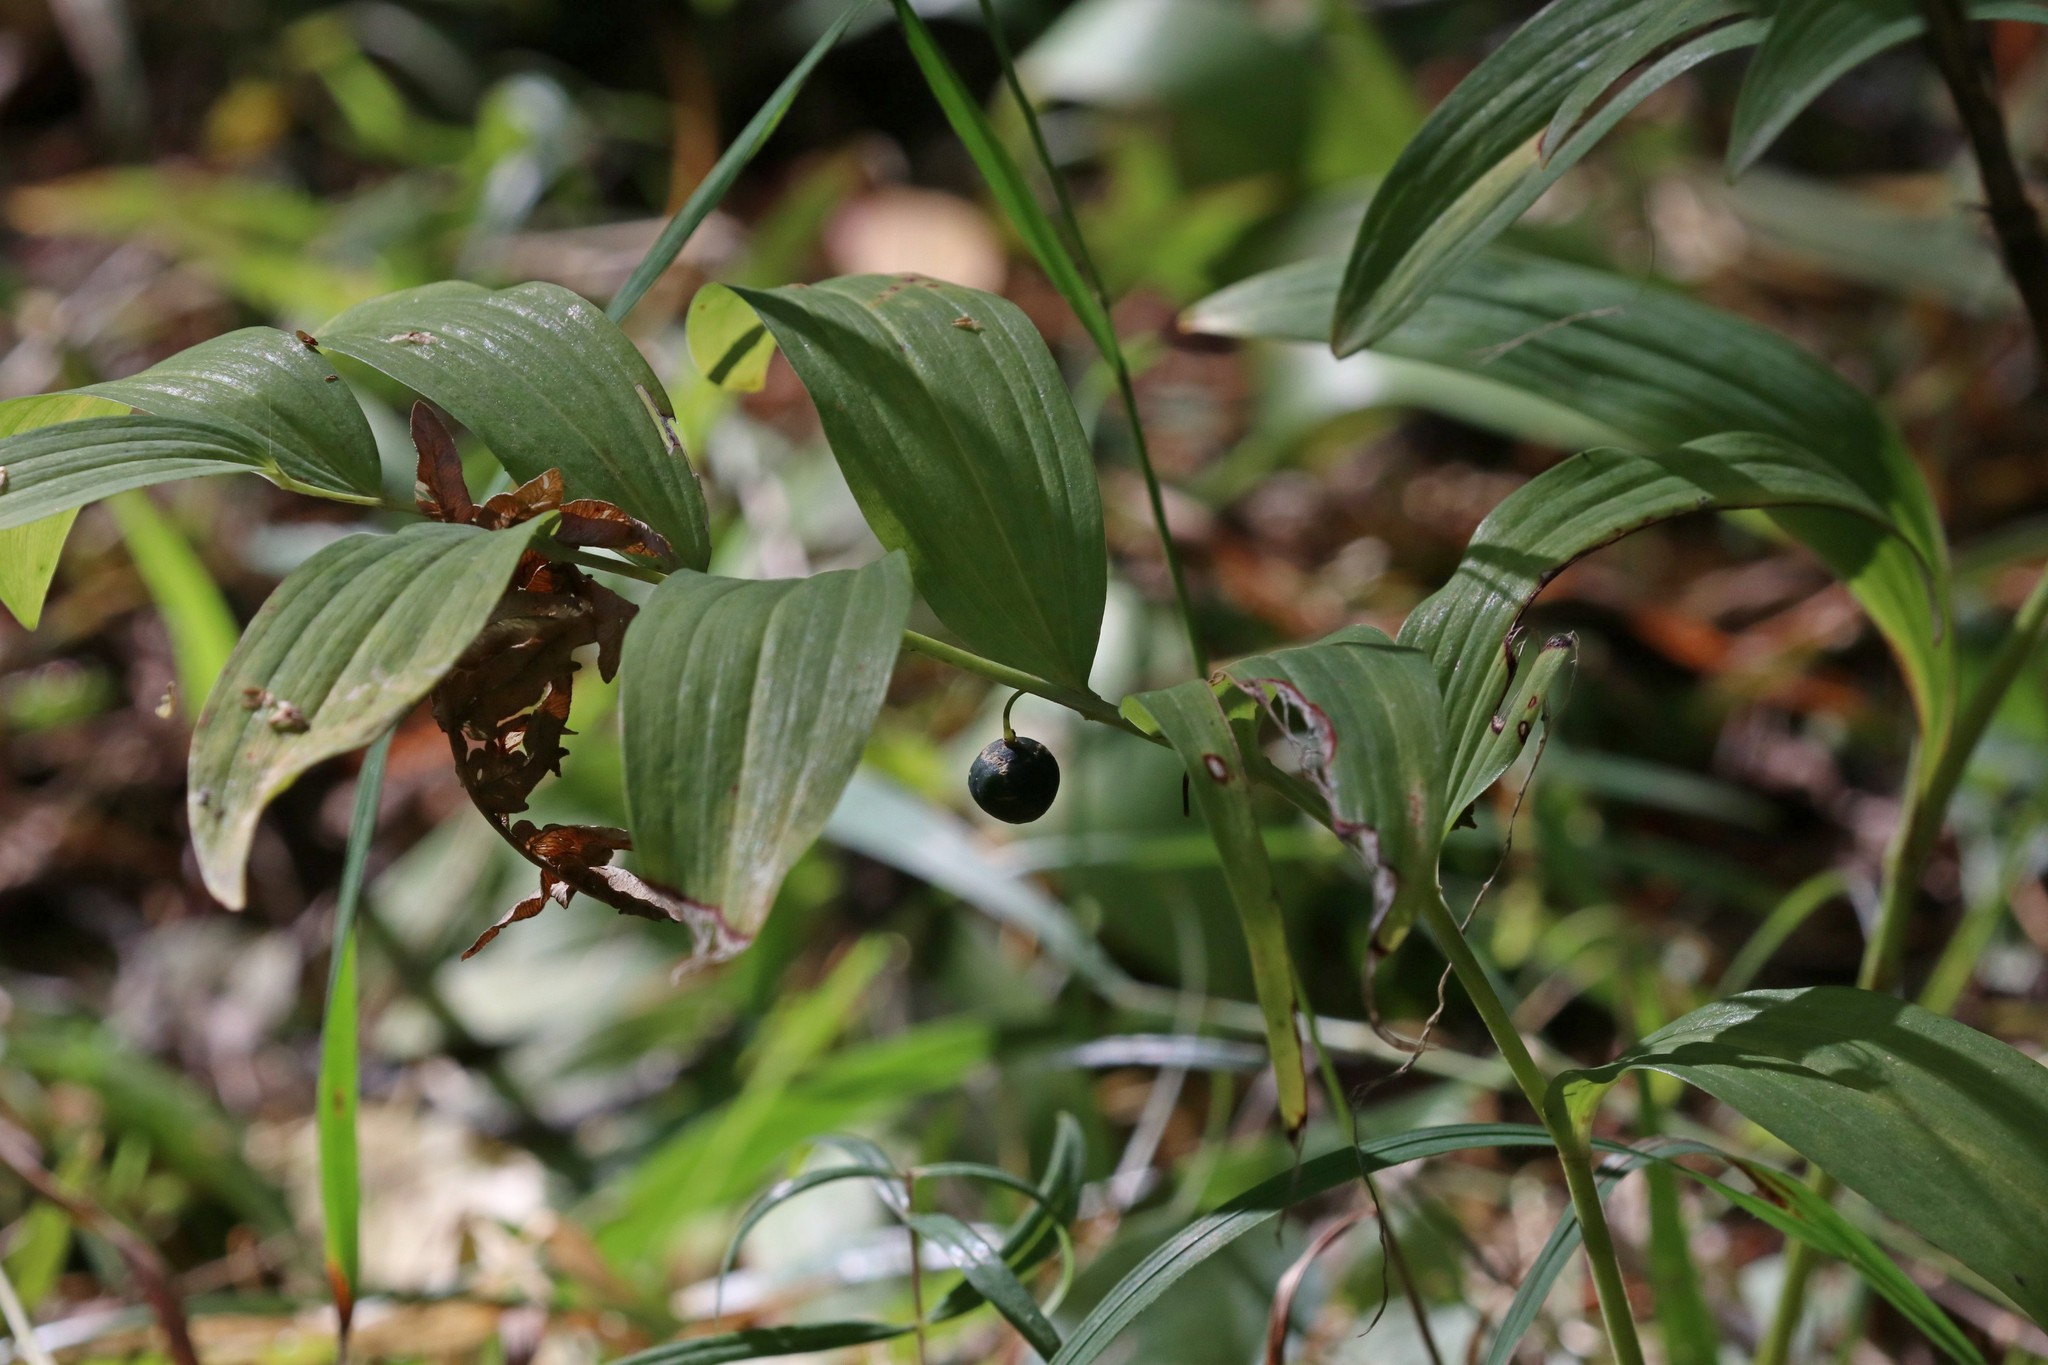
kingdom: Plantae
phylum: Tracheophyta
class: Liliopsida
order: Asparagales
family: Asparagaceae
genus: Polygonatum
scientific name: Polygonatum odoratum
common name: Angular solomon's-seal
